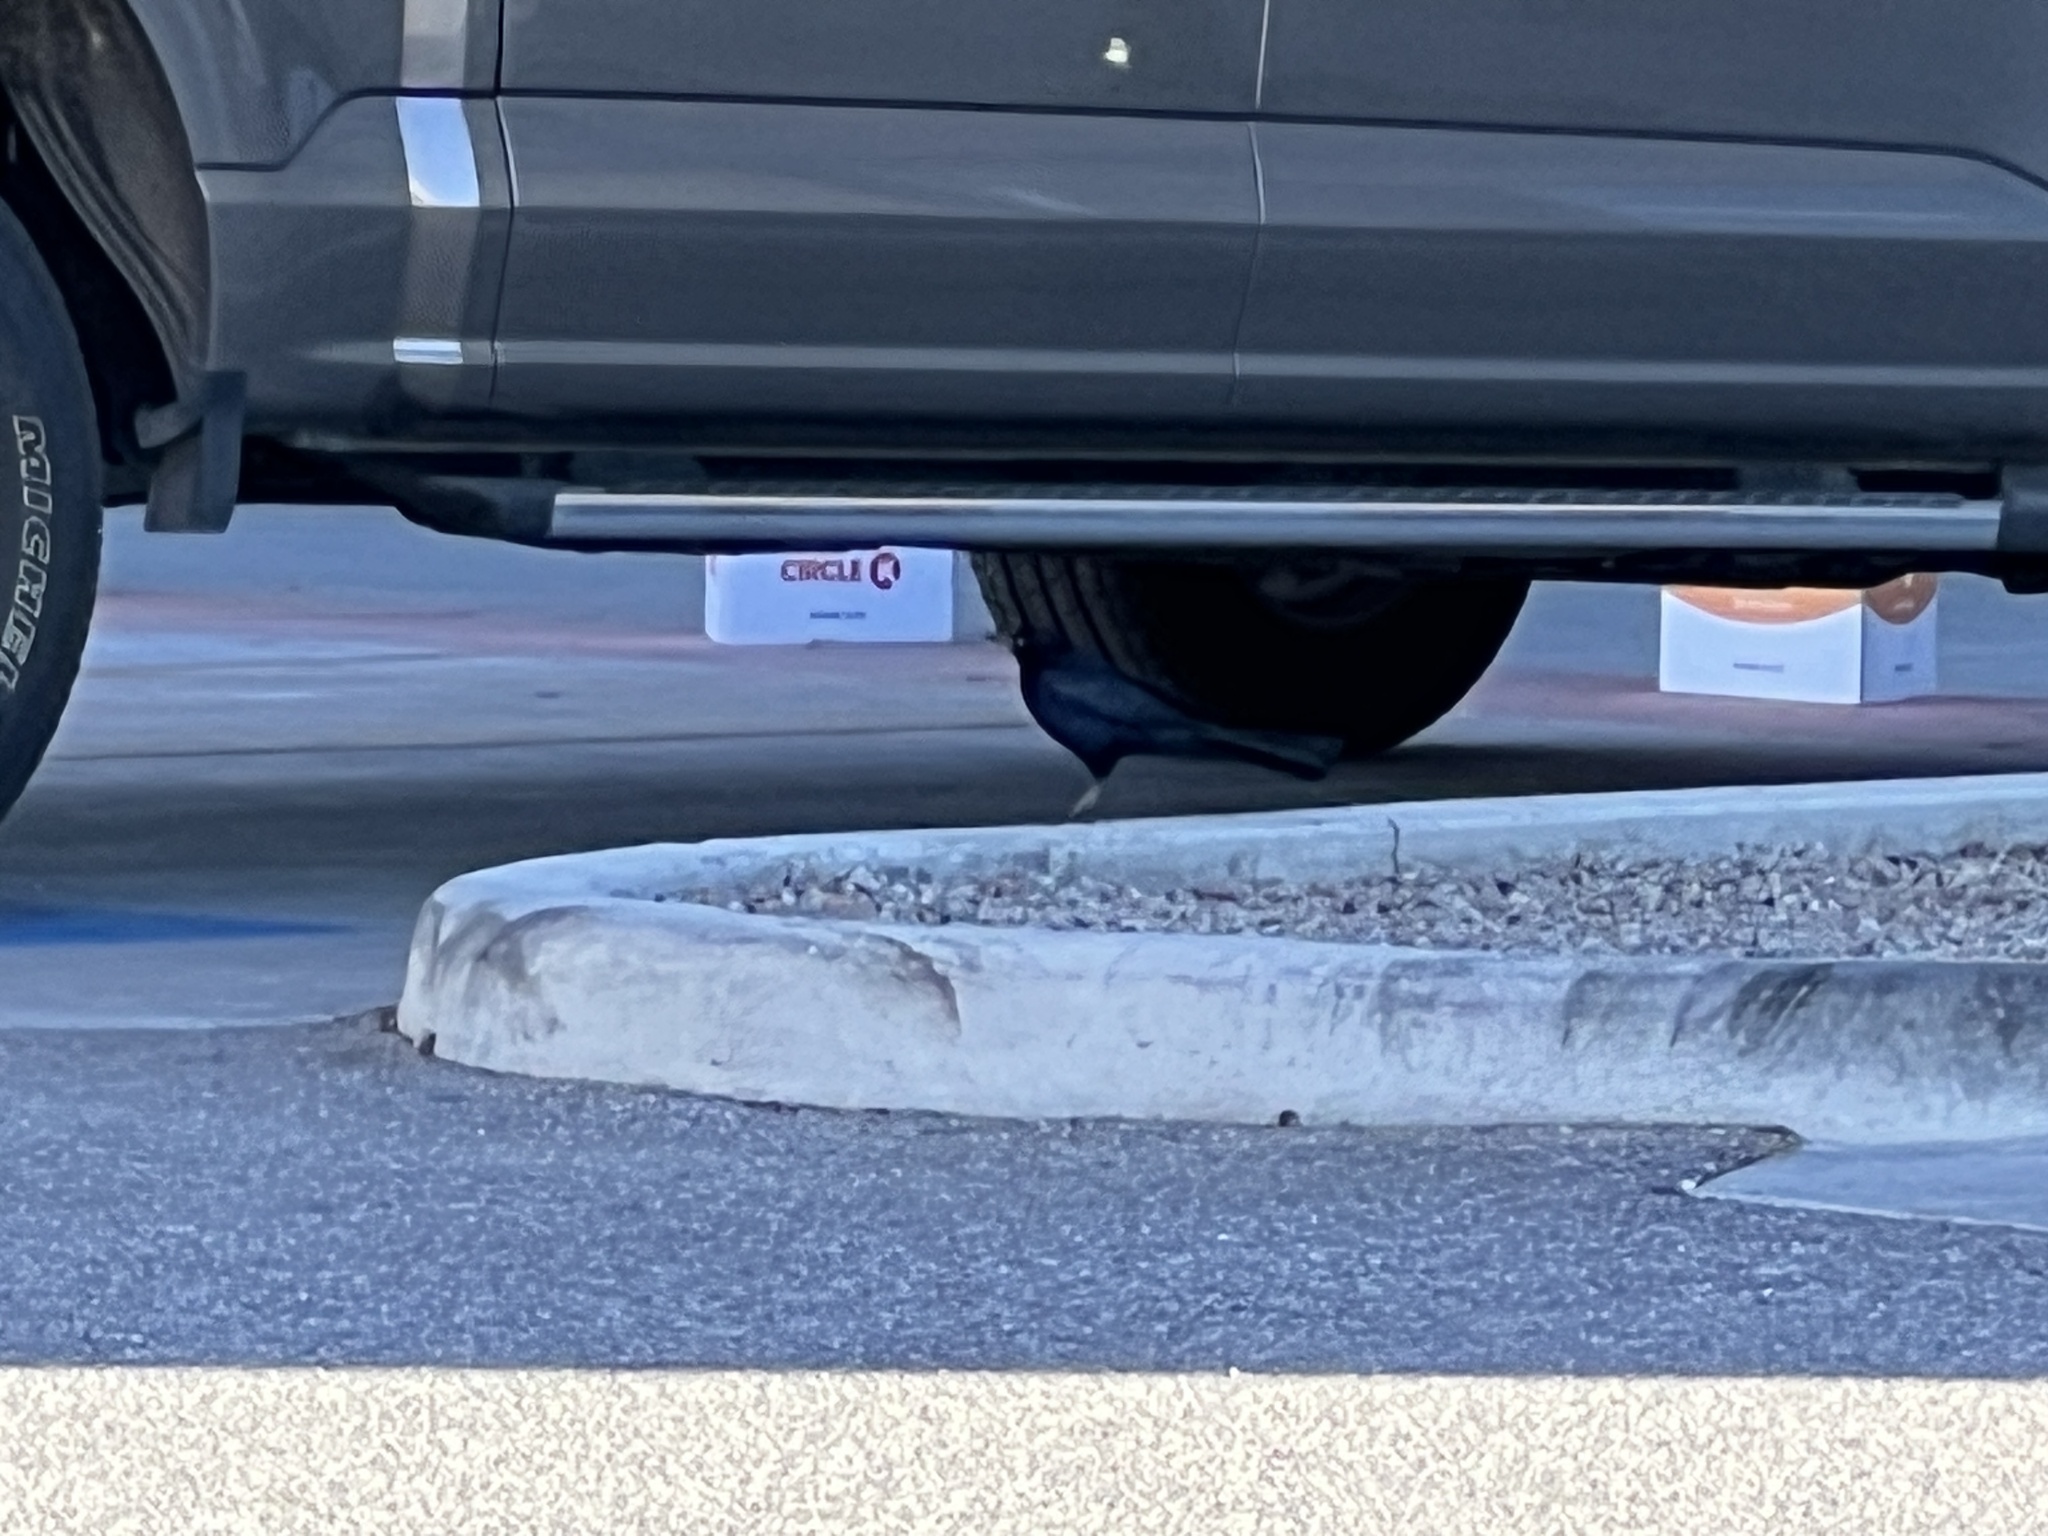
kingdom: Animalia
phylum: Chordata
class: Aves
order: Passeriformes
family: Icteridae
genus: Quiscalus
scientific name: Quiscalus mexicanus
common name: Great-tailed grackle
